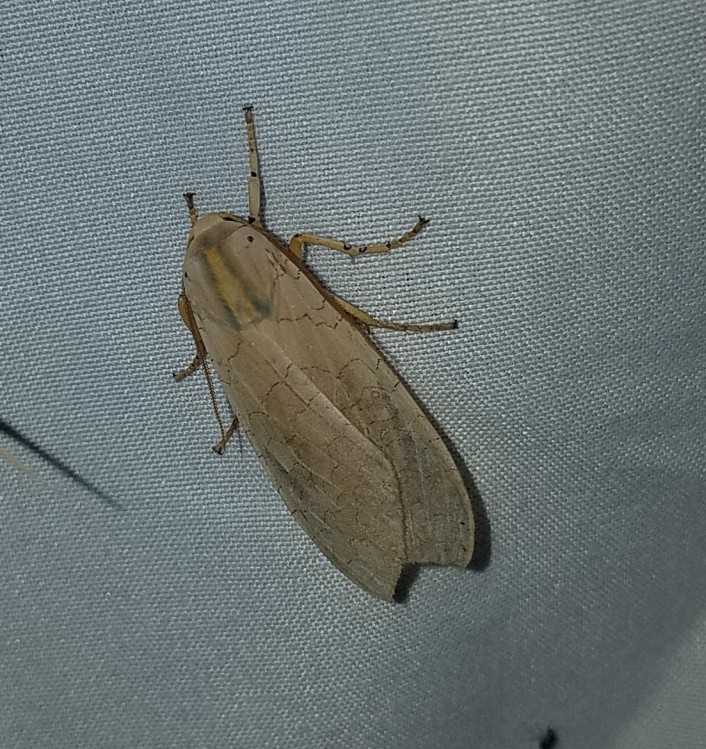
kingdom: Animalia
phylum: Arthropoda
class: Insecta
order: Lepidoptera
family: Erebidae
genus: Halysidota
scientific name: Halysidota
